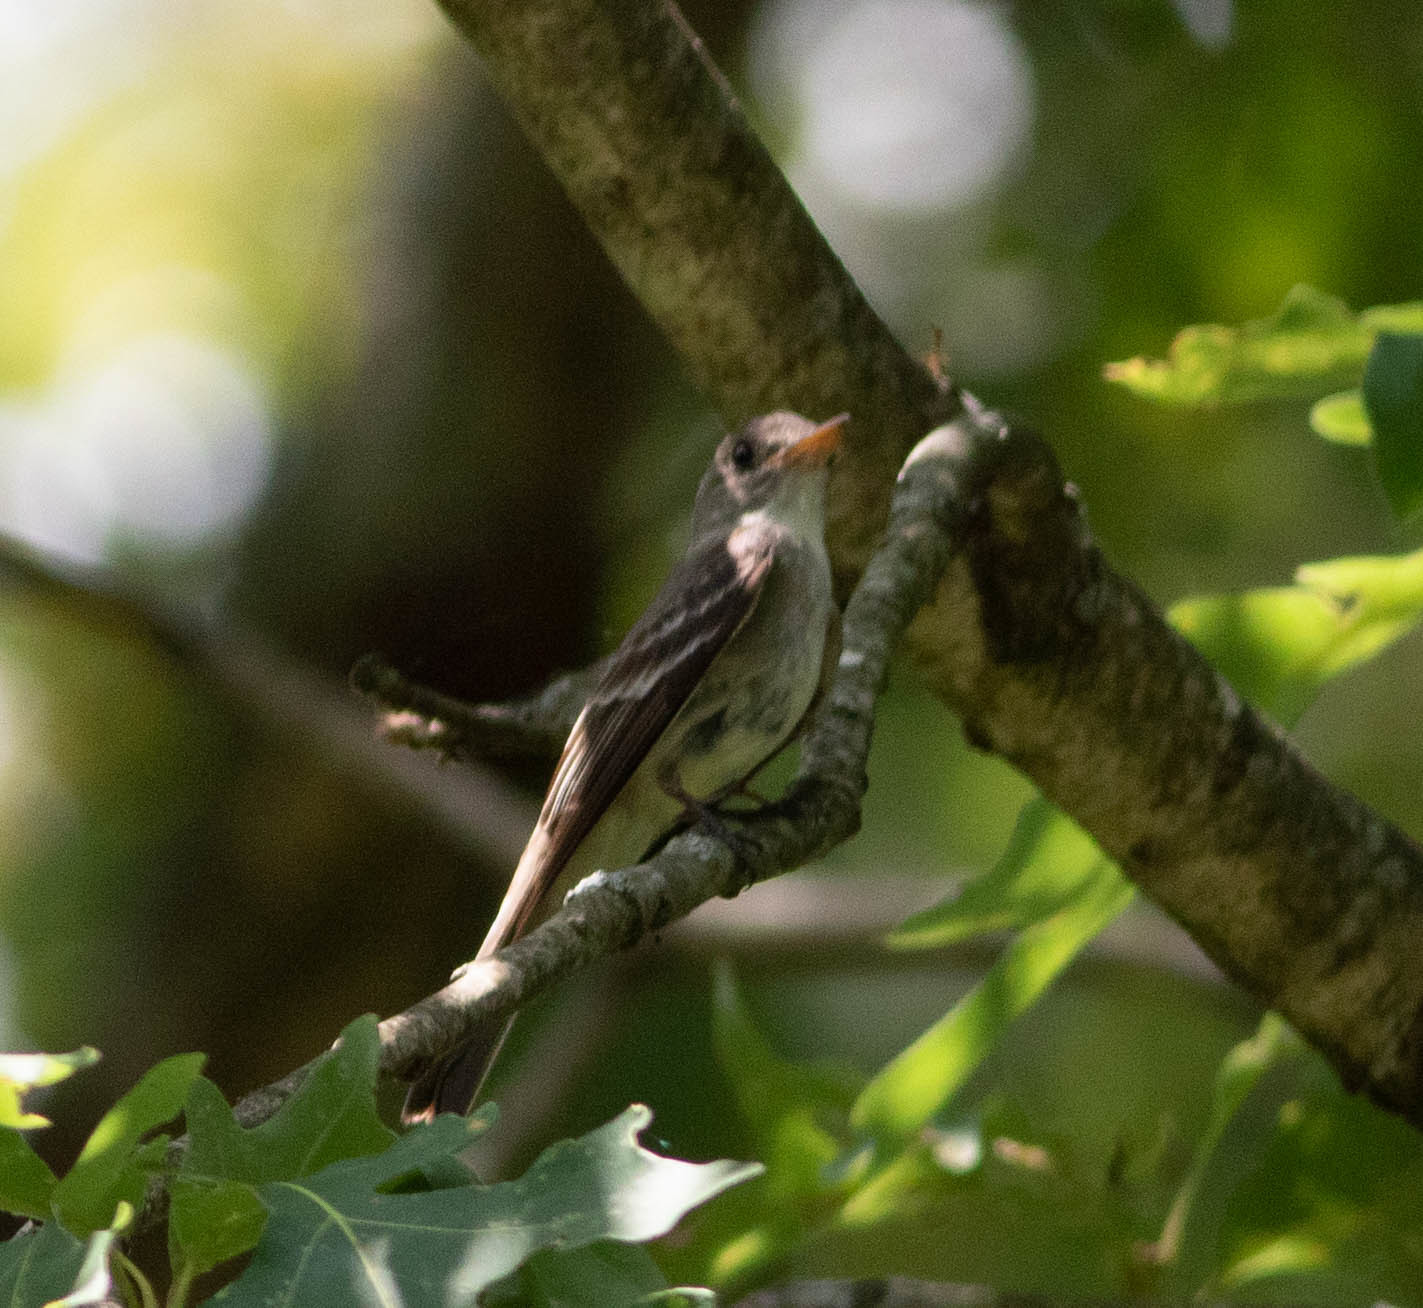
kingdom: Animalia
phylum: Chordata
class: Aves
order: Passeriformes
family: Tyrannidae
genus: Contopus
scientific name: Contopus virens
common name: Eastern wood-pewee
